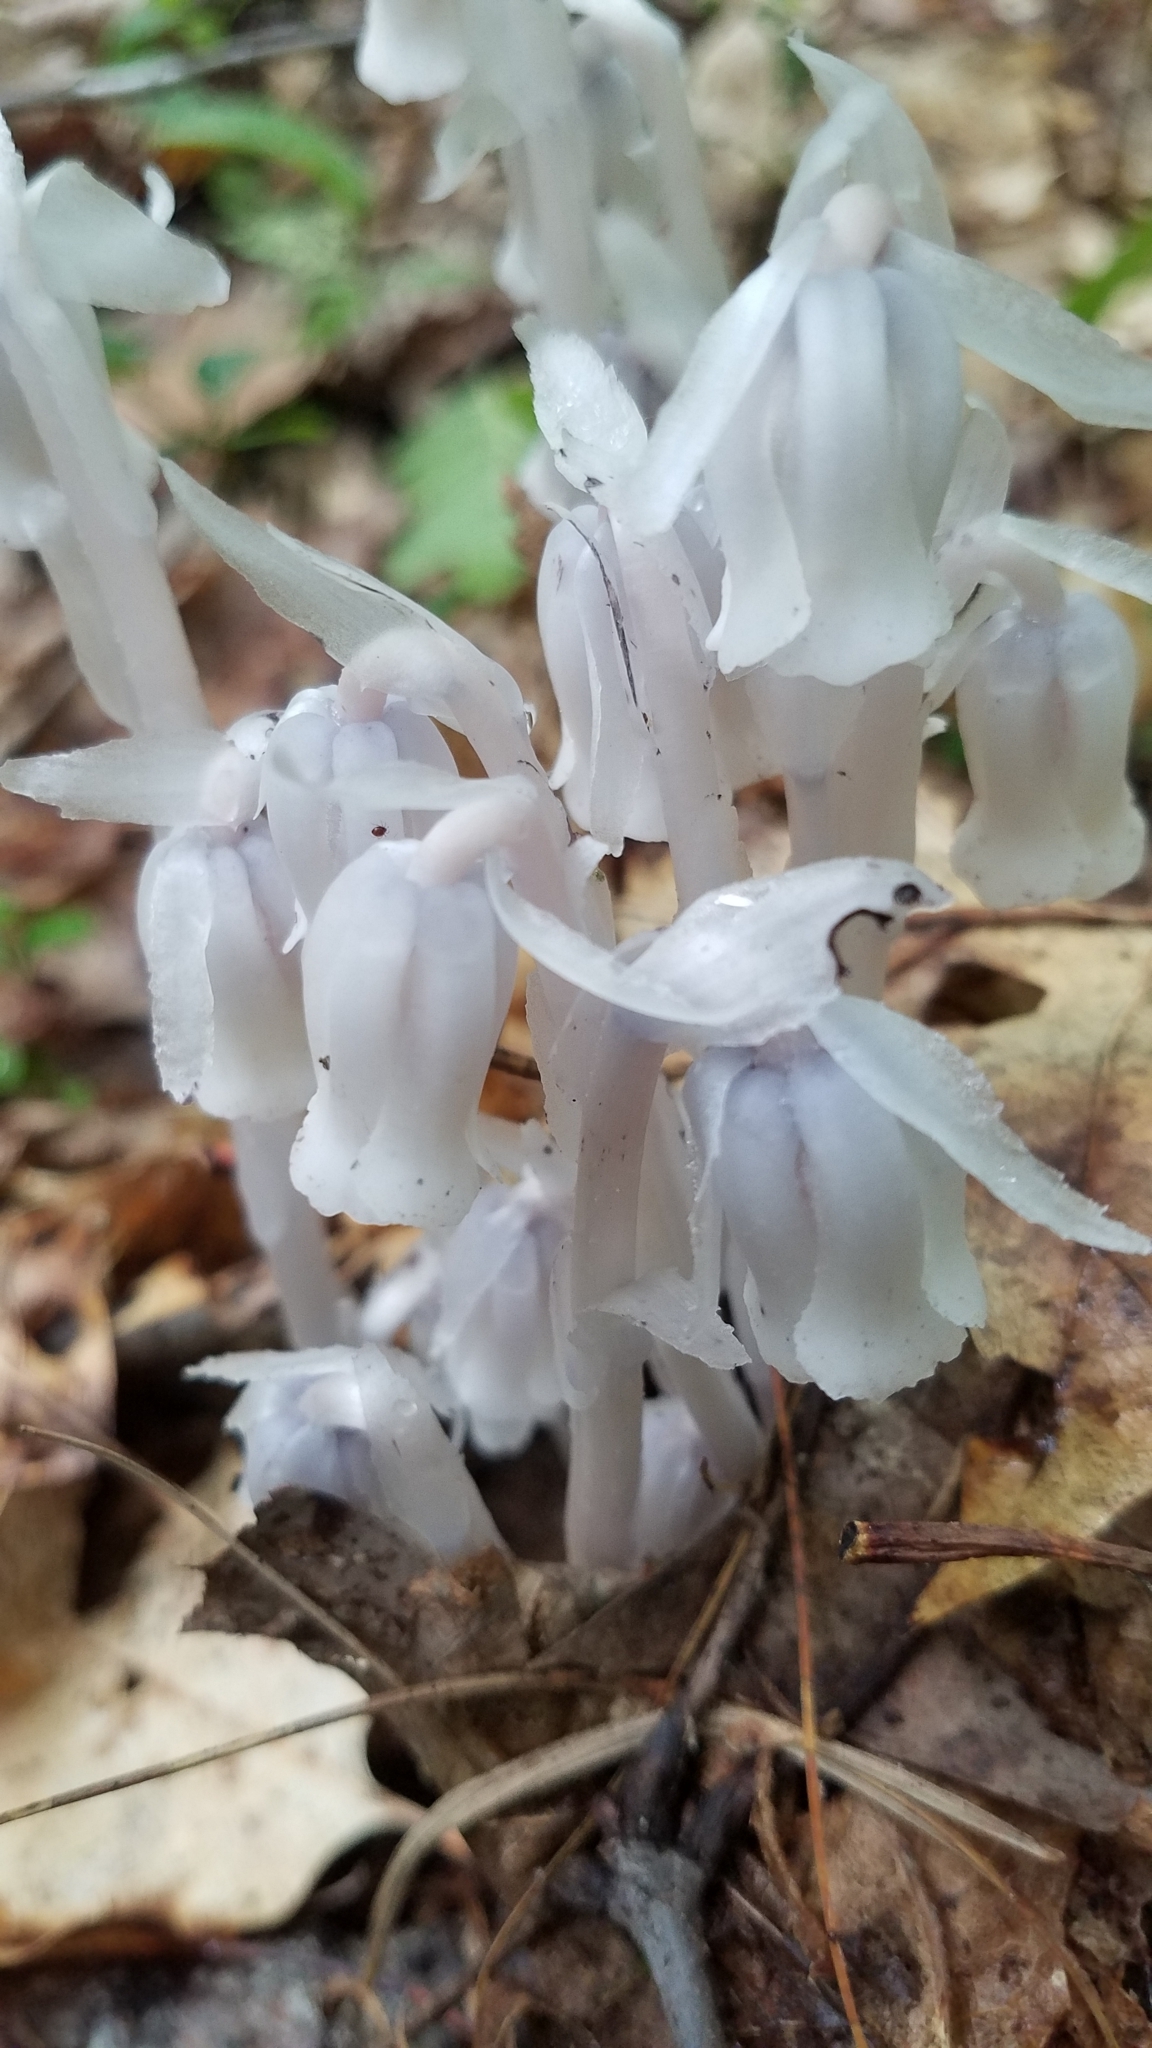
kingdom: Plantae
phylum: Tracheophyta
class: Magnoliopsida
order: Ericales
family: Ericaceae
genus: Monotropa
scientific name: Monotropa uniflora
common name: Convulsion root
